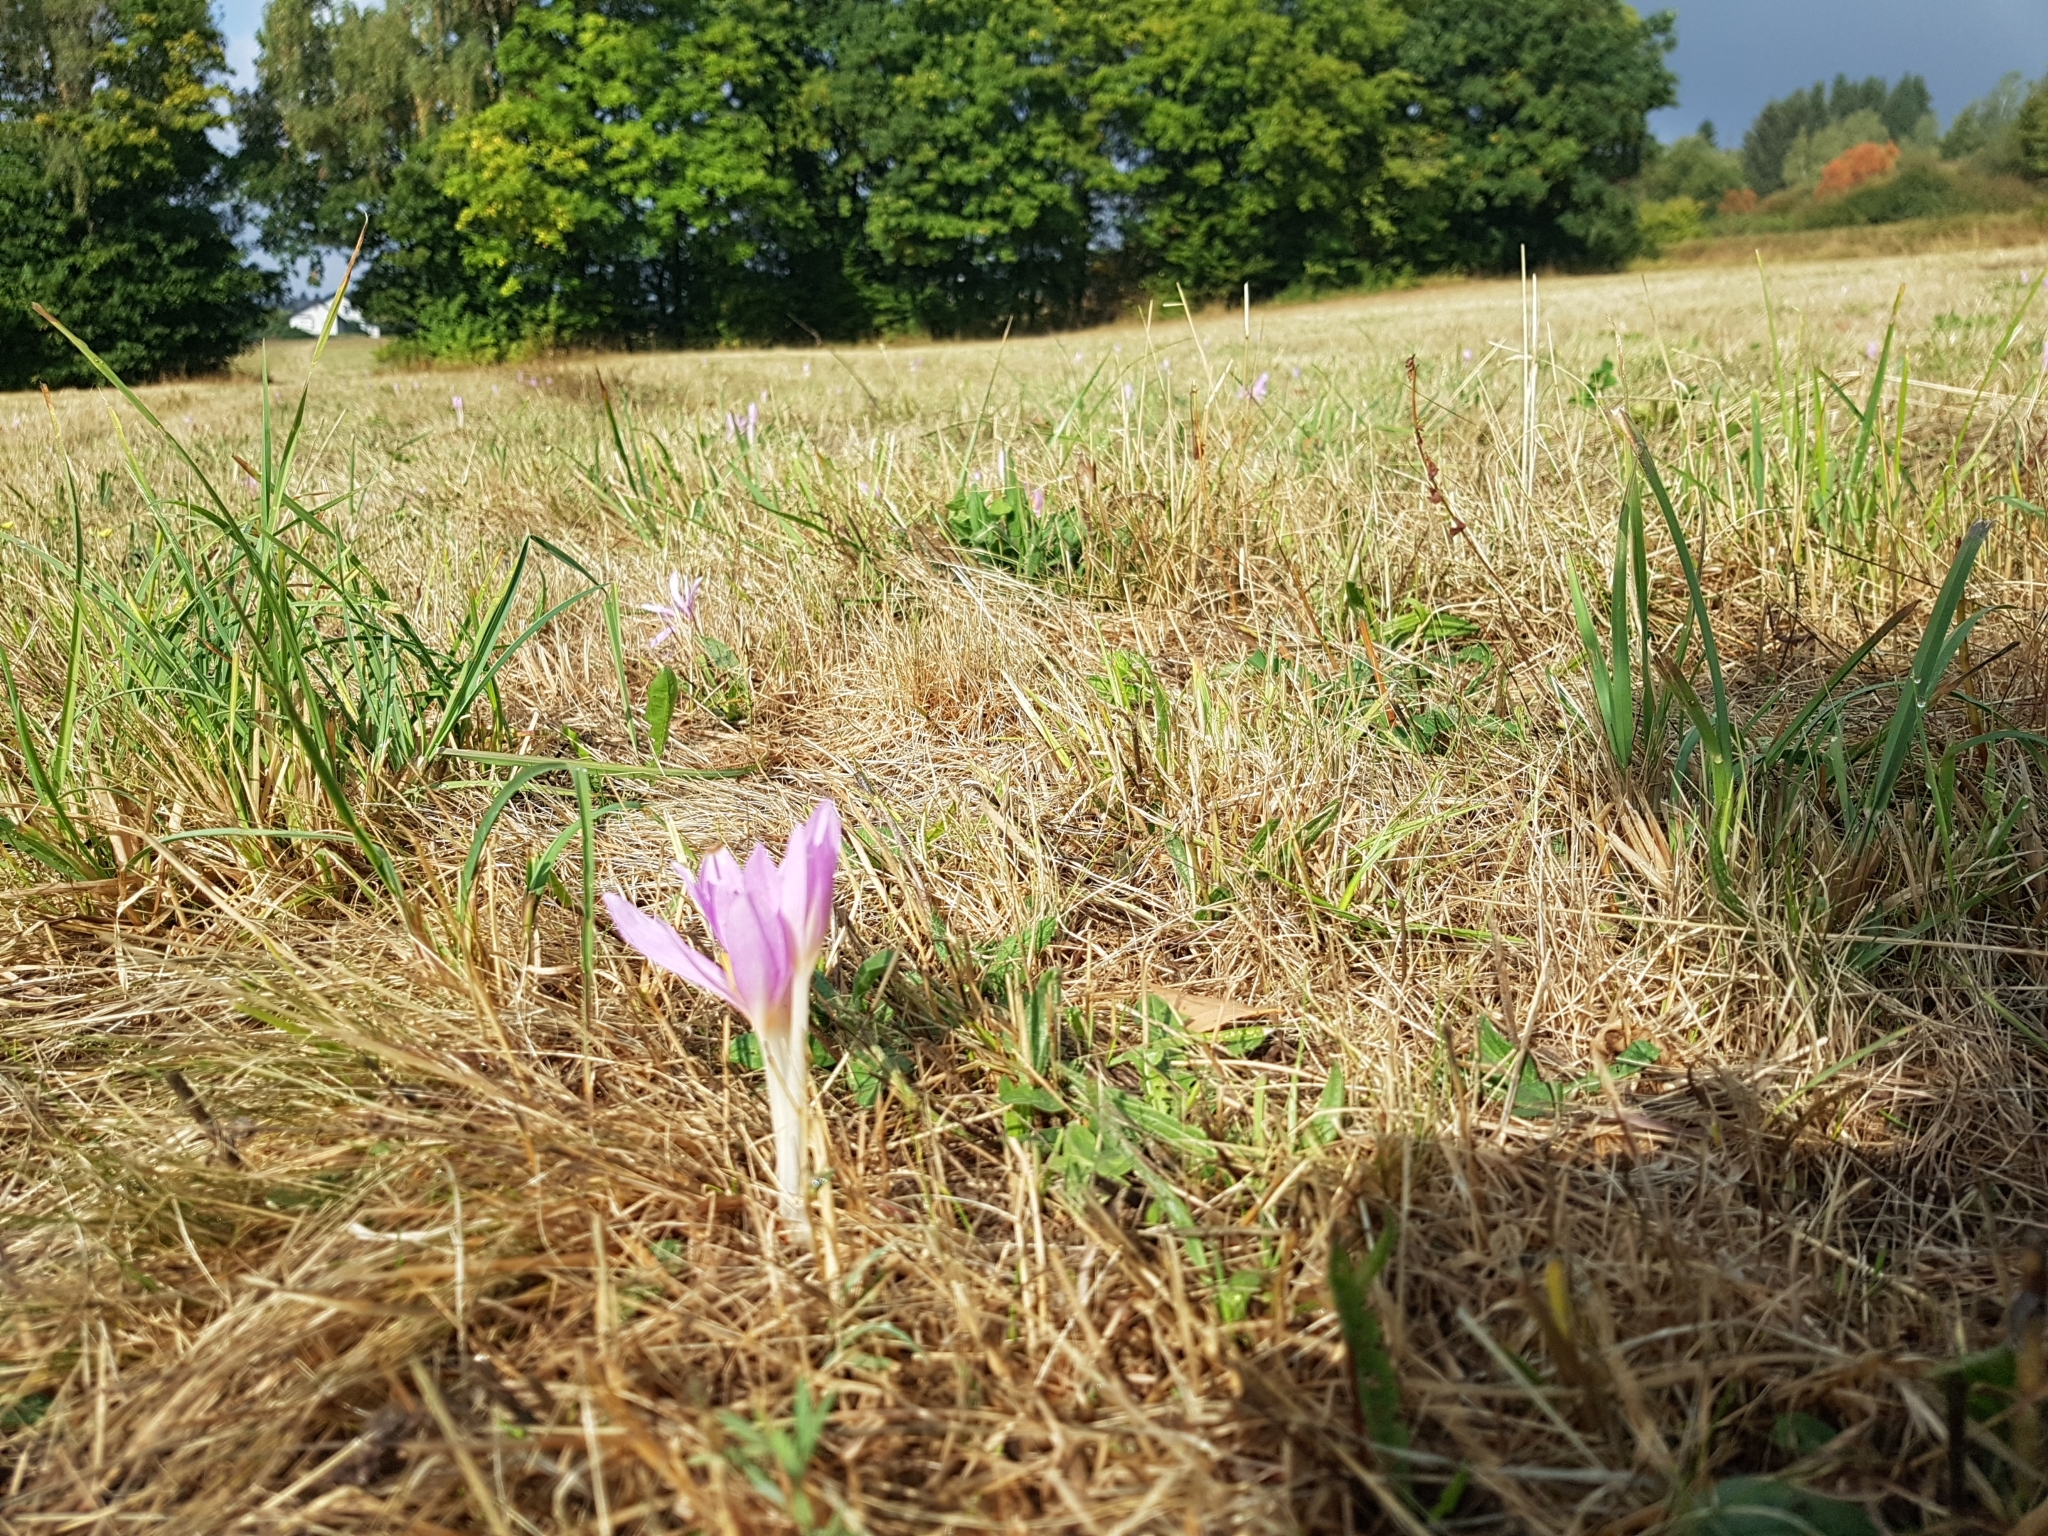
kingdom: Plantae
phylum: Tracheophyta
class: Liliopsida
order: Liliales
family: Colchicaceae
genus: Colchicum
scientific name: Colchicum autumnale
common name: Autumn crocus
